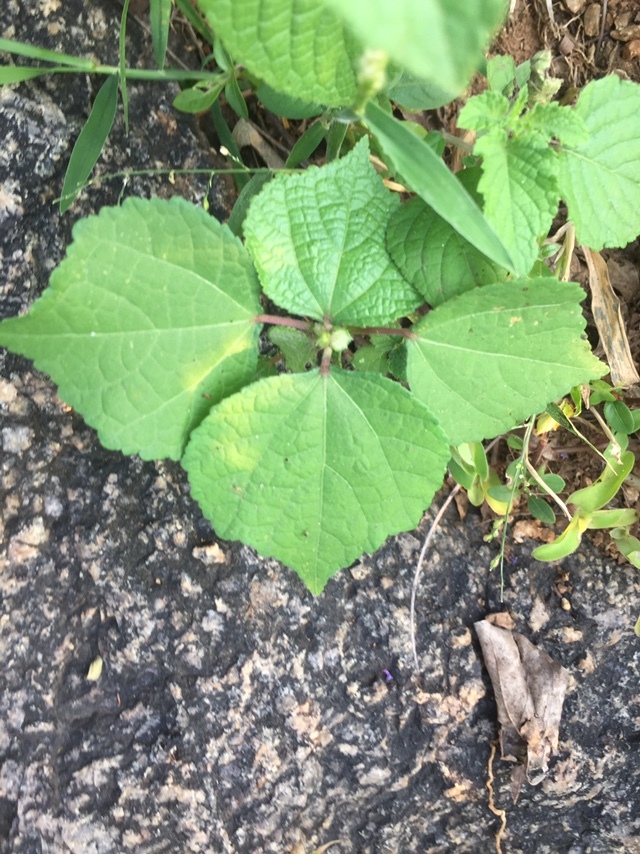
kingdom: Plantae
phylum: Tracheophyta
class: Magnoliopsida
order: Malvales
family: Malvaceae
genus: Triumfetta
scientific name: Triumfetta rhomboidea
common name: Diamond burbark
